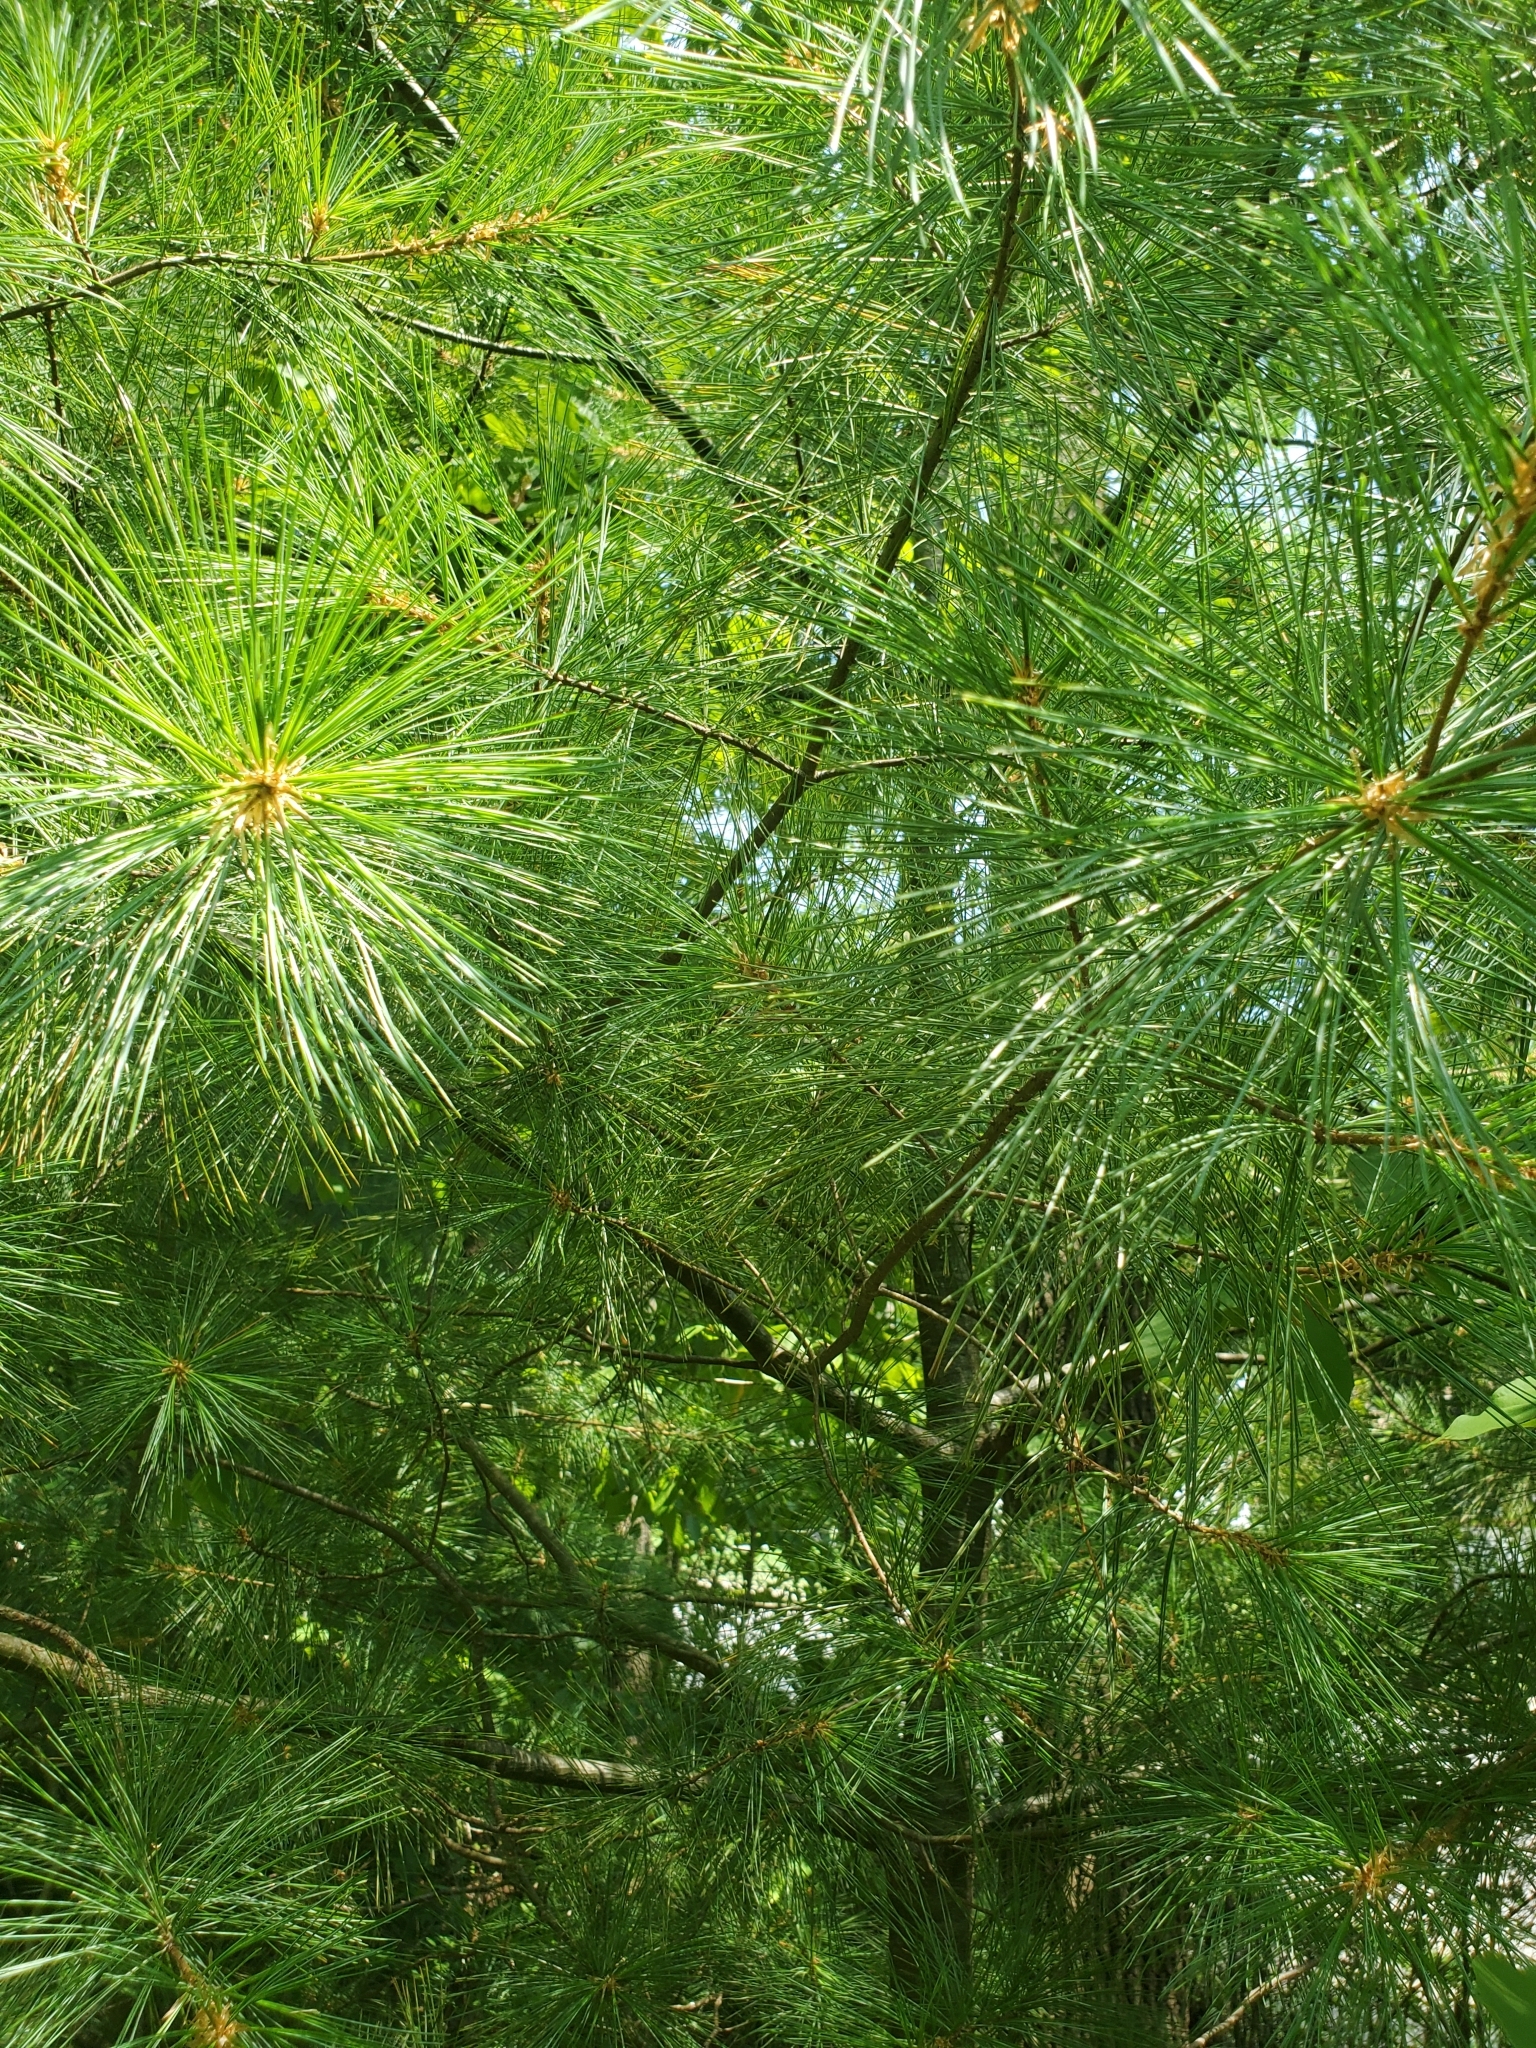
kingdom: Plantae
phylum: Tracheophyta
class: Pinopsida
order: Pinales
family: Pinaceae
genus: Pinus
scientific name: Pinus strobus
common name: Weymouth pine
